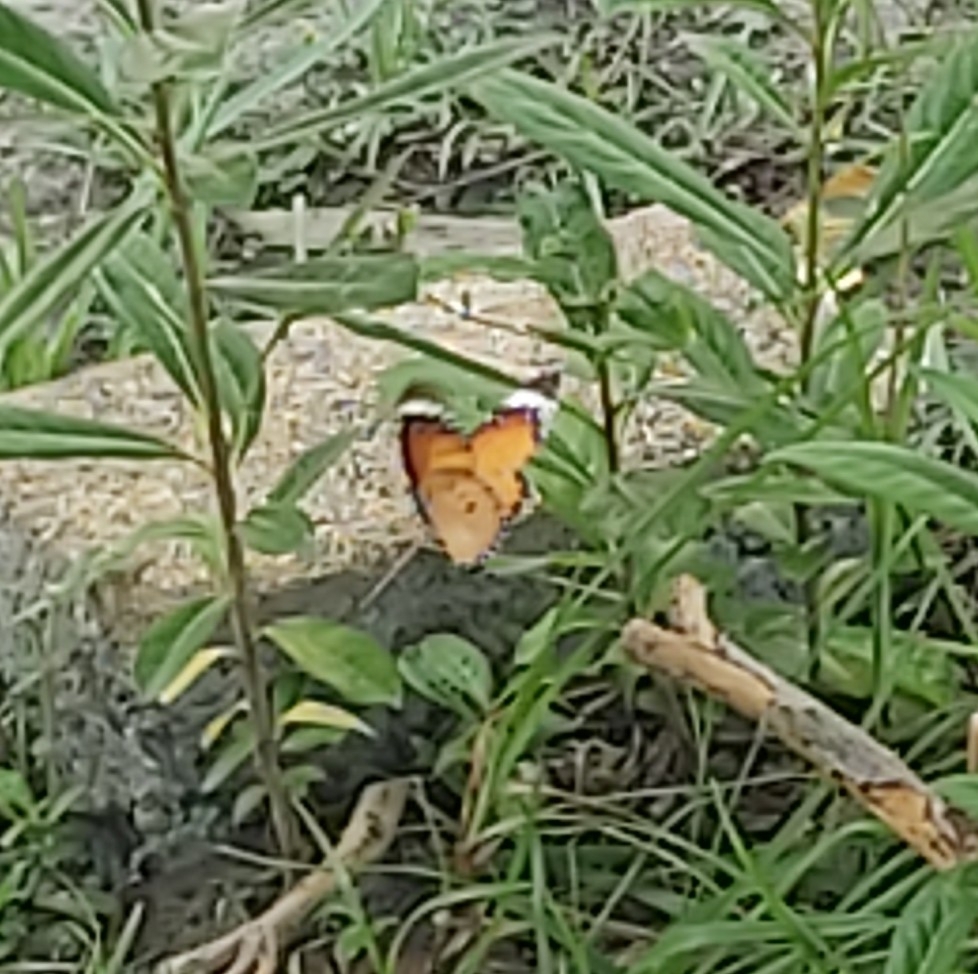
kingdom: Animalia
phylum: Arthropoda
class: Insecta
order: Lepidoptera
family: Nymphalidae
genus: Danaus
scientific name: Danaus chrysippus
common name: Plain tiger
